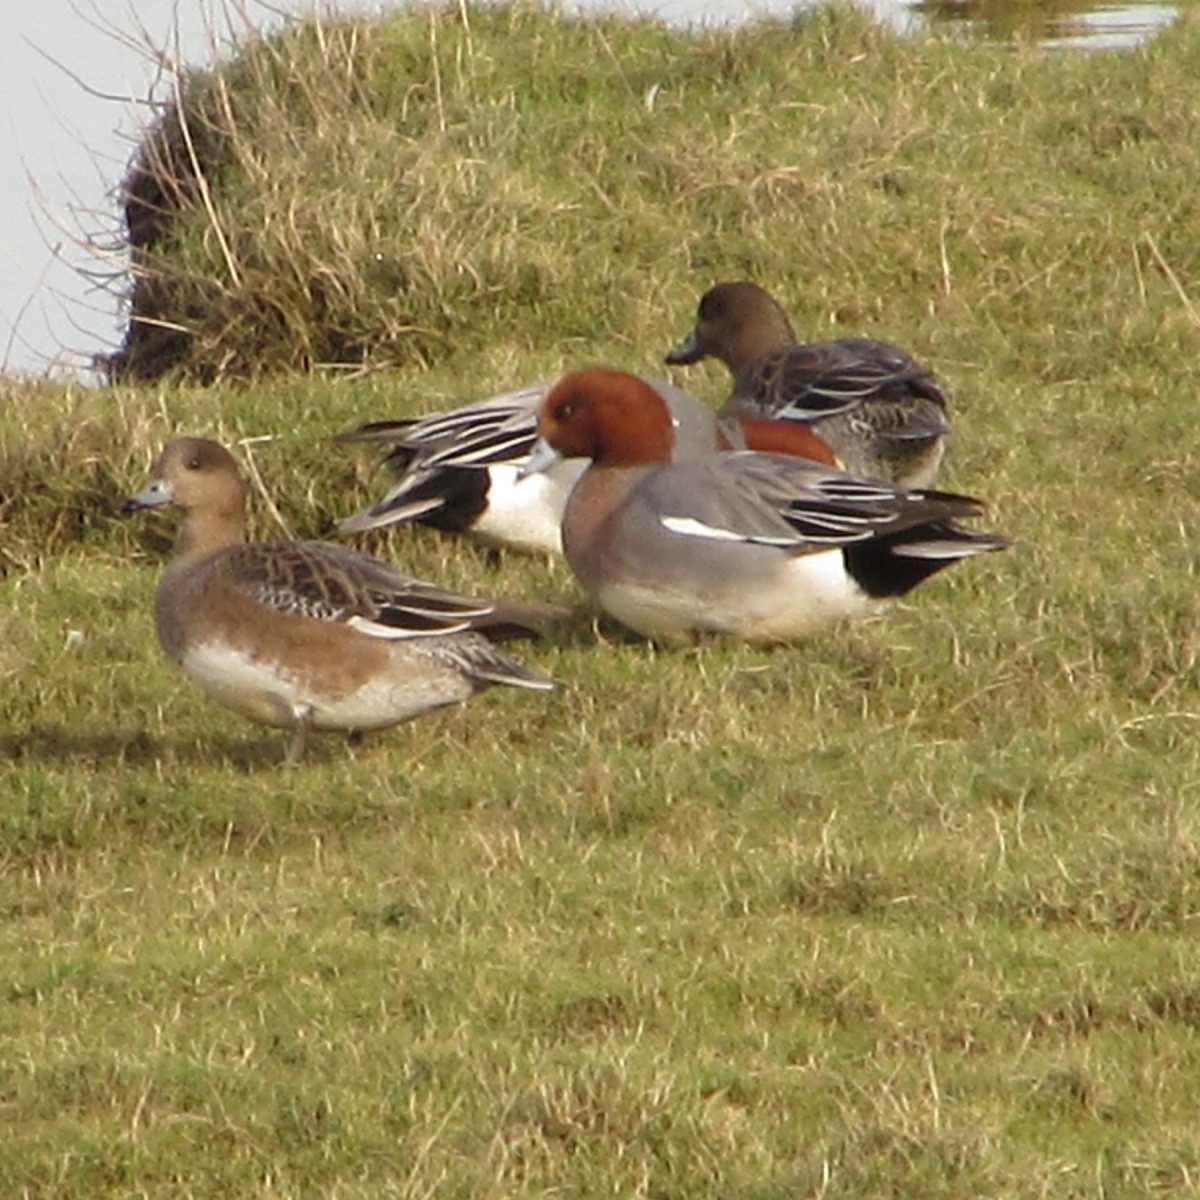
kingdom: Animalia
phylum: Chordata
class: Aves
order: Anseriformes
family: Anatidae
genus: Mareca
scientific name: Mareca penelope
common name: Eurasian wigeon
